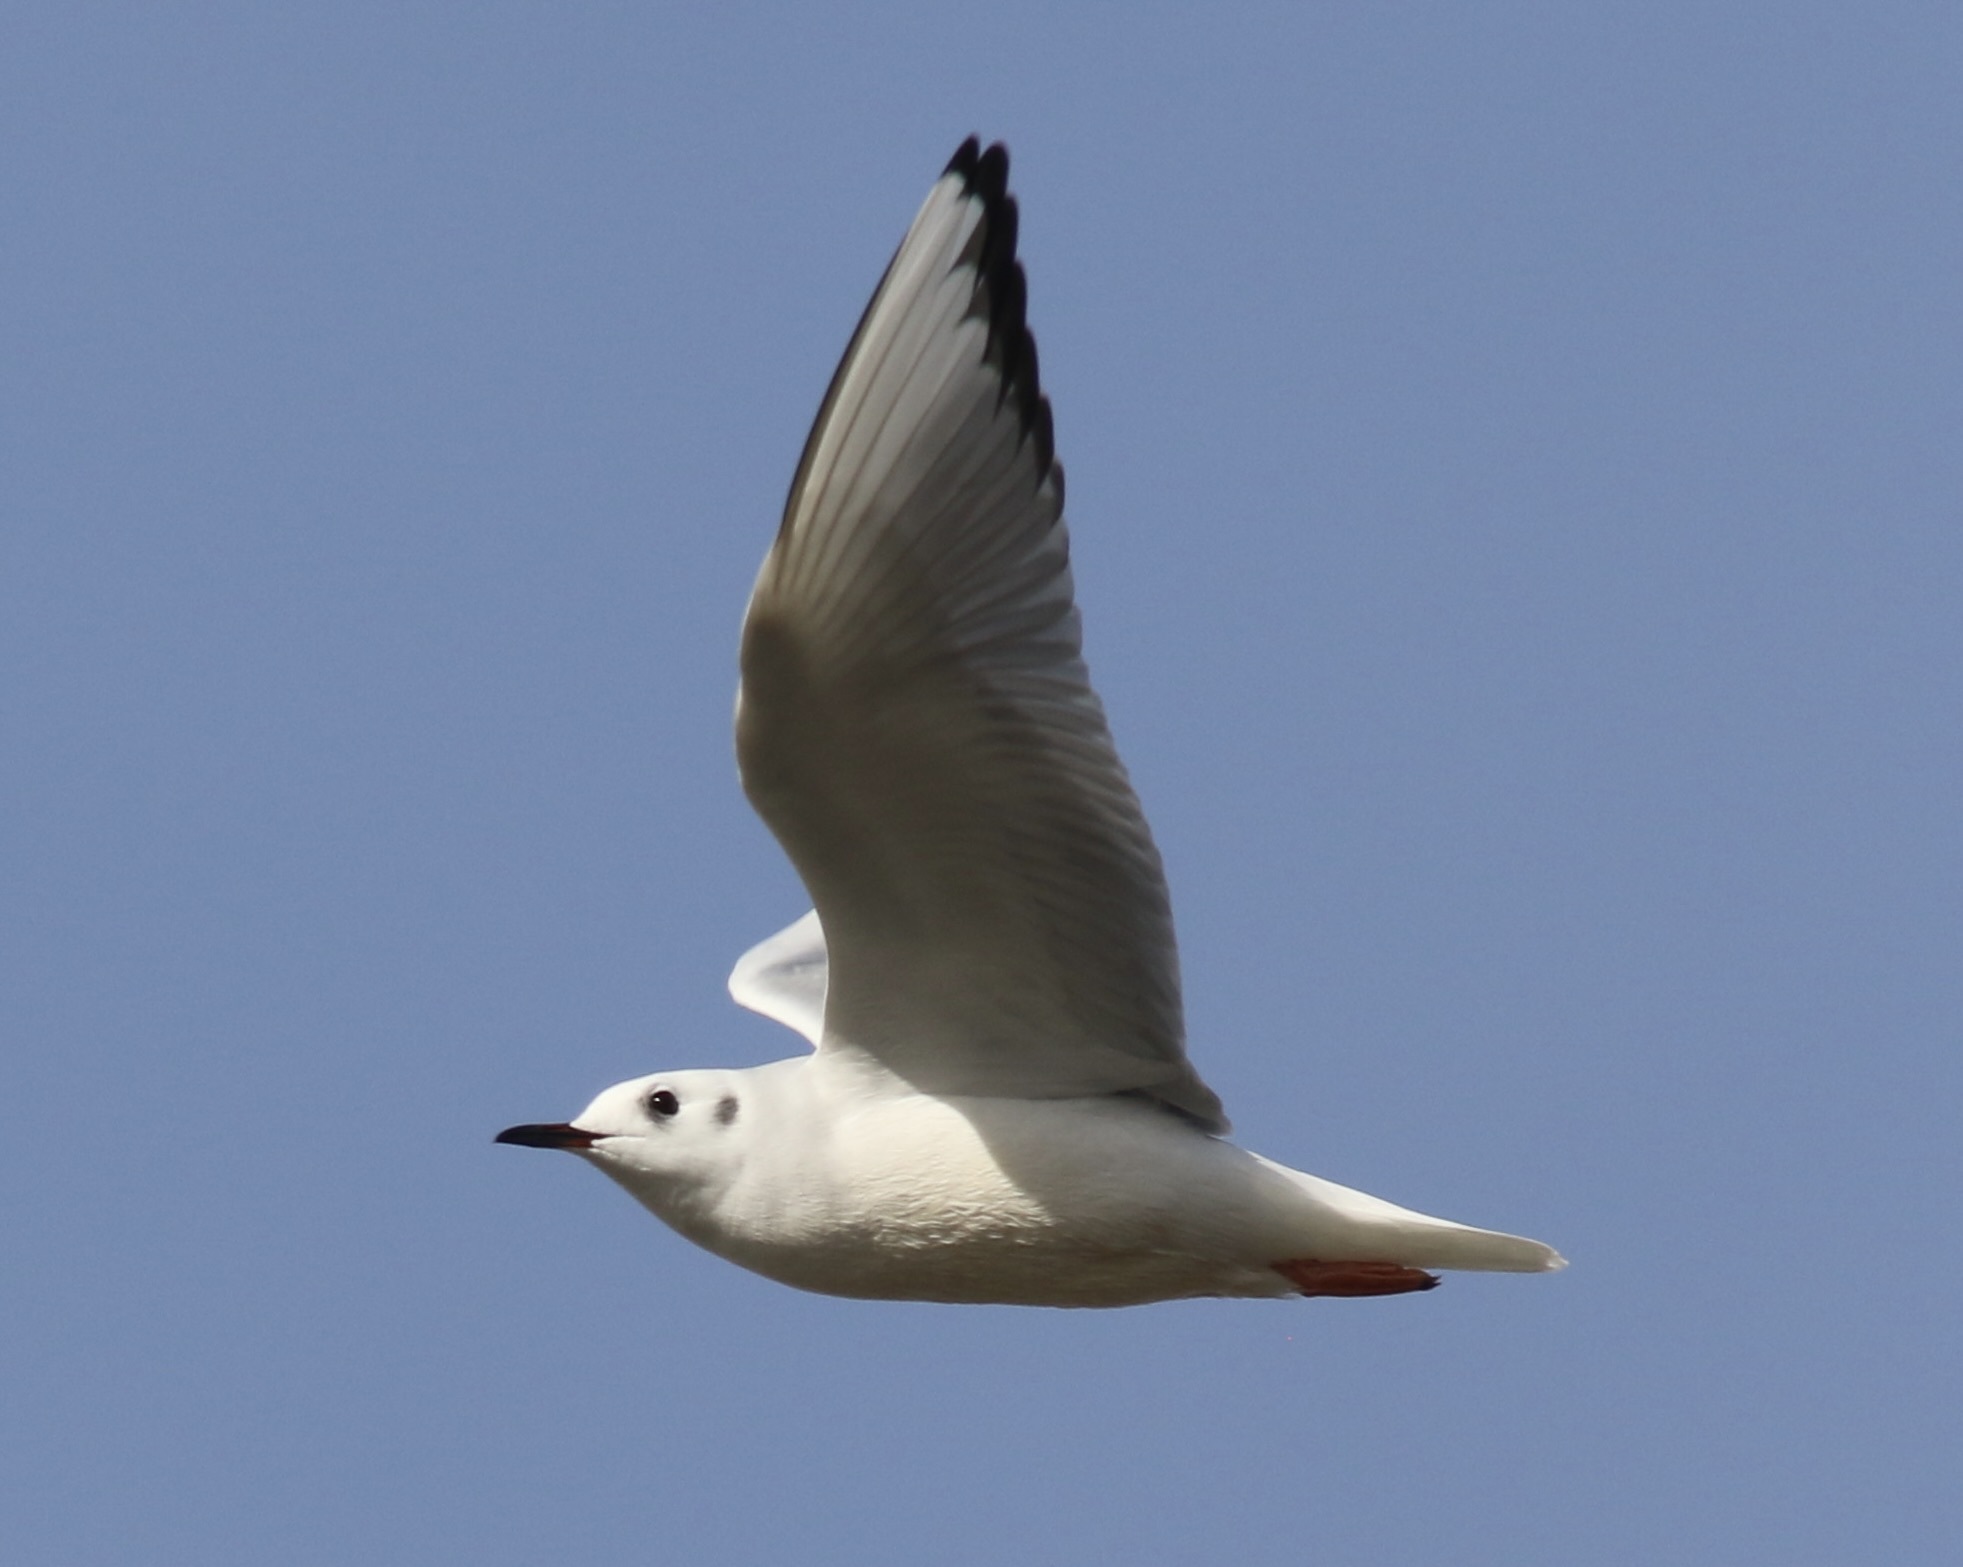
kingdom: Animalia
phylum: Chordata
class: Aves
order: Charadriiformes
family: Laridae
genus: Chroicocephalus
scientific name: Chroicocephalus philadelphia
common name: Bonaparte's gull
